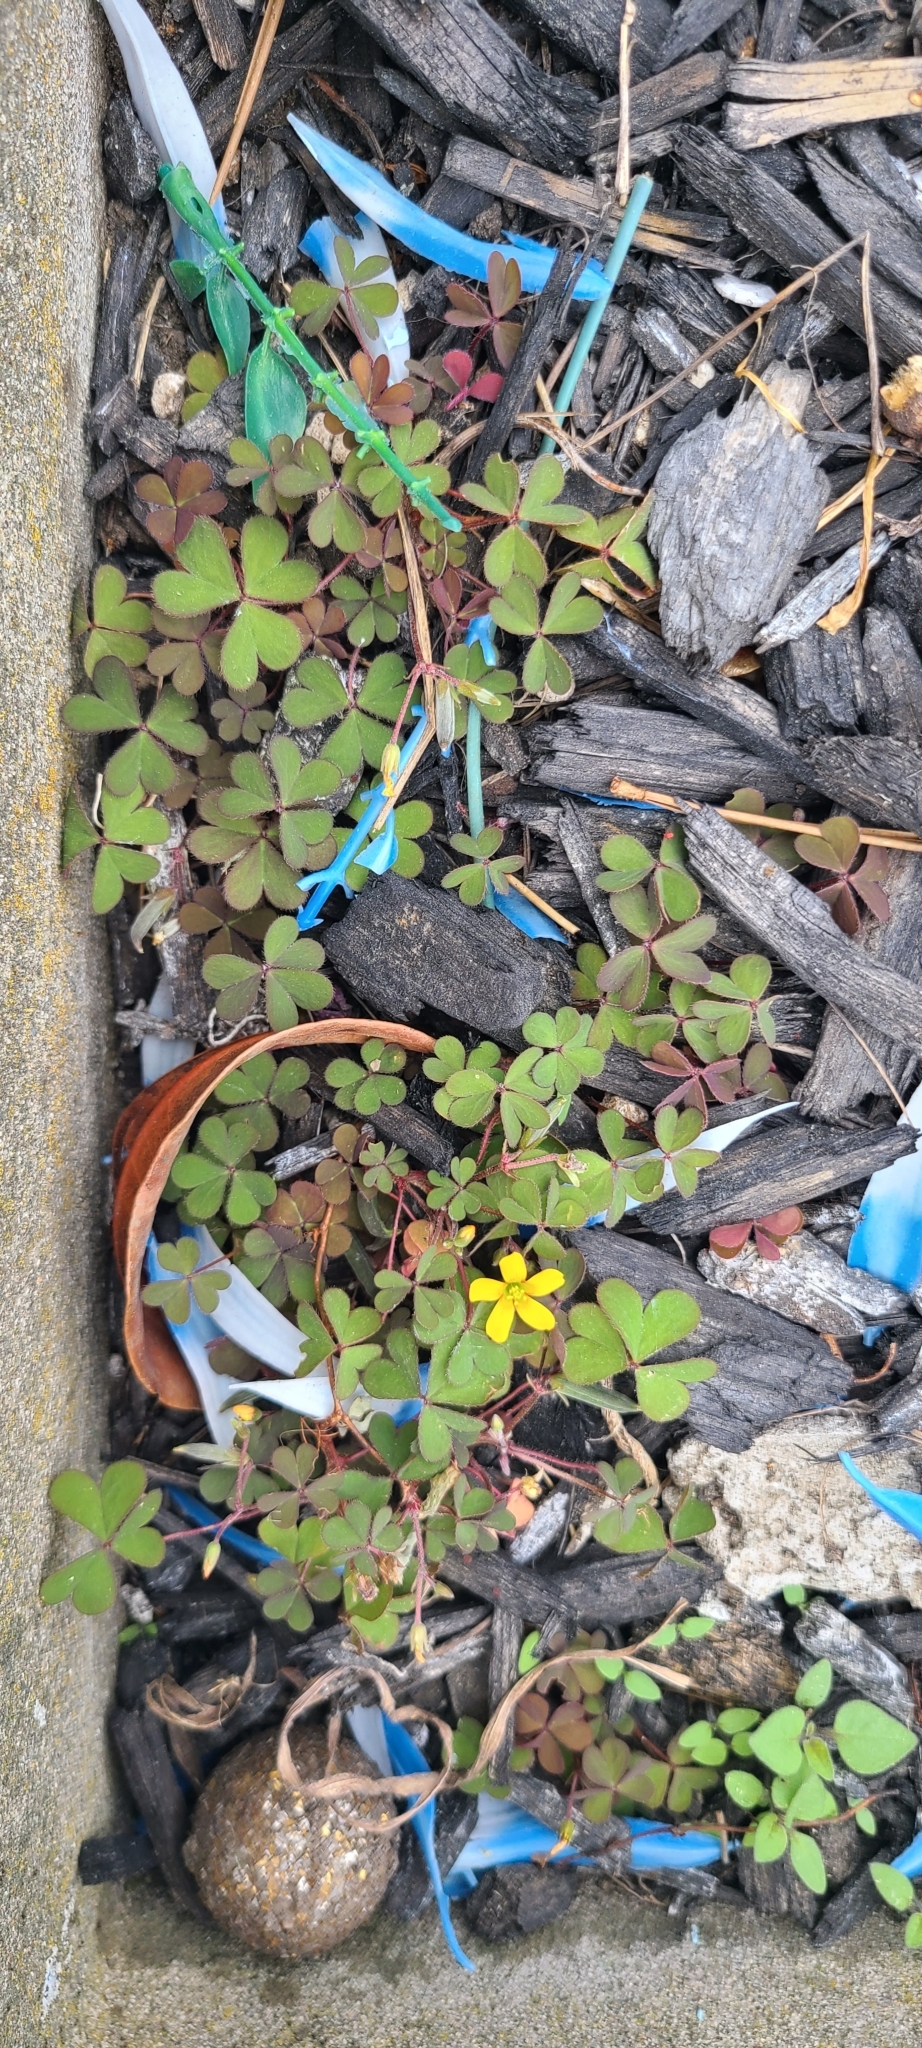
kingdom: Plantae
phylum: Tracheophyta
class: Magnoliopsida
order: Oxalidales
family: Oxalidaceae
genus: Oxalis
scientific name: Oxalis corniculata
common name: Procumbent yellow-sorrel
